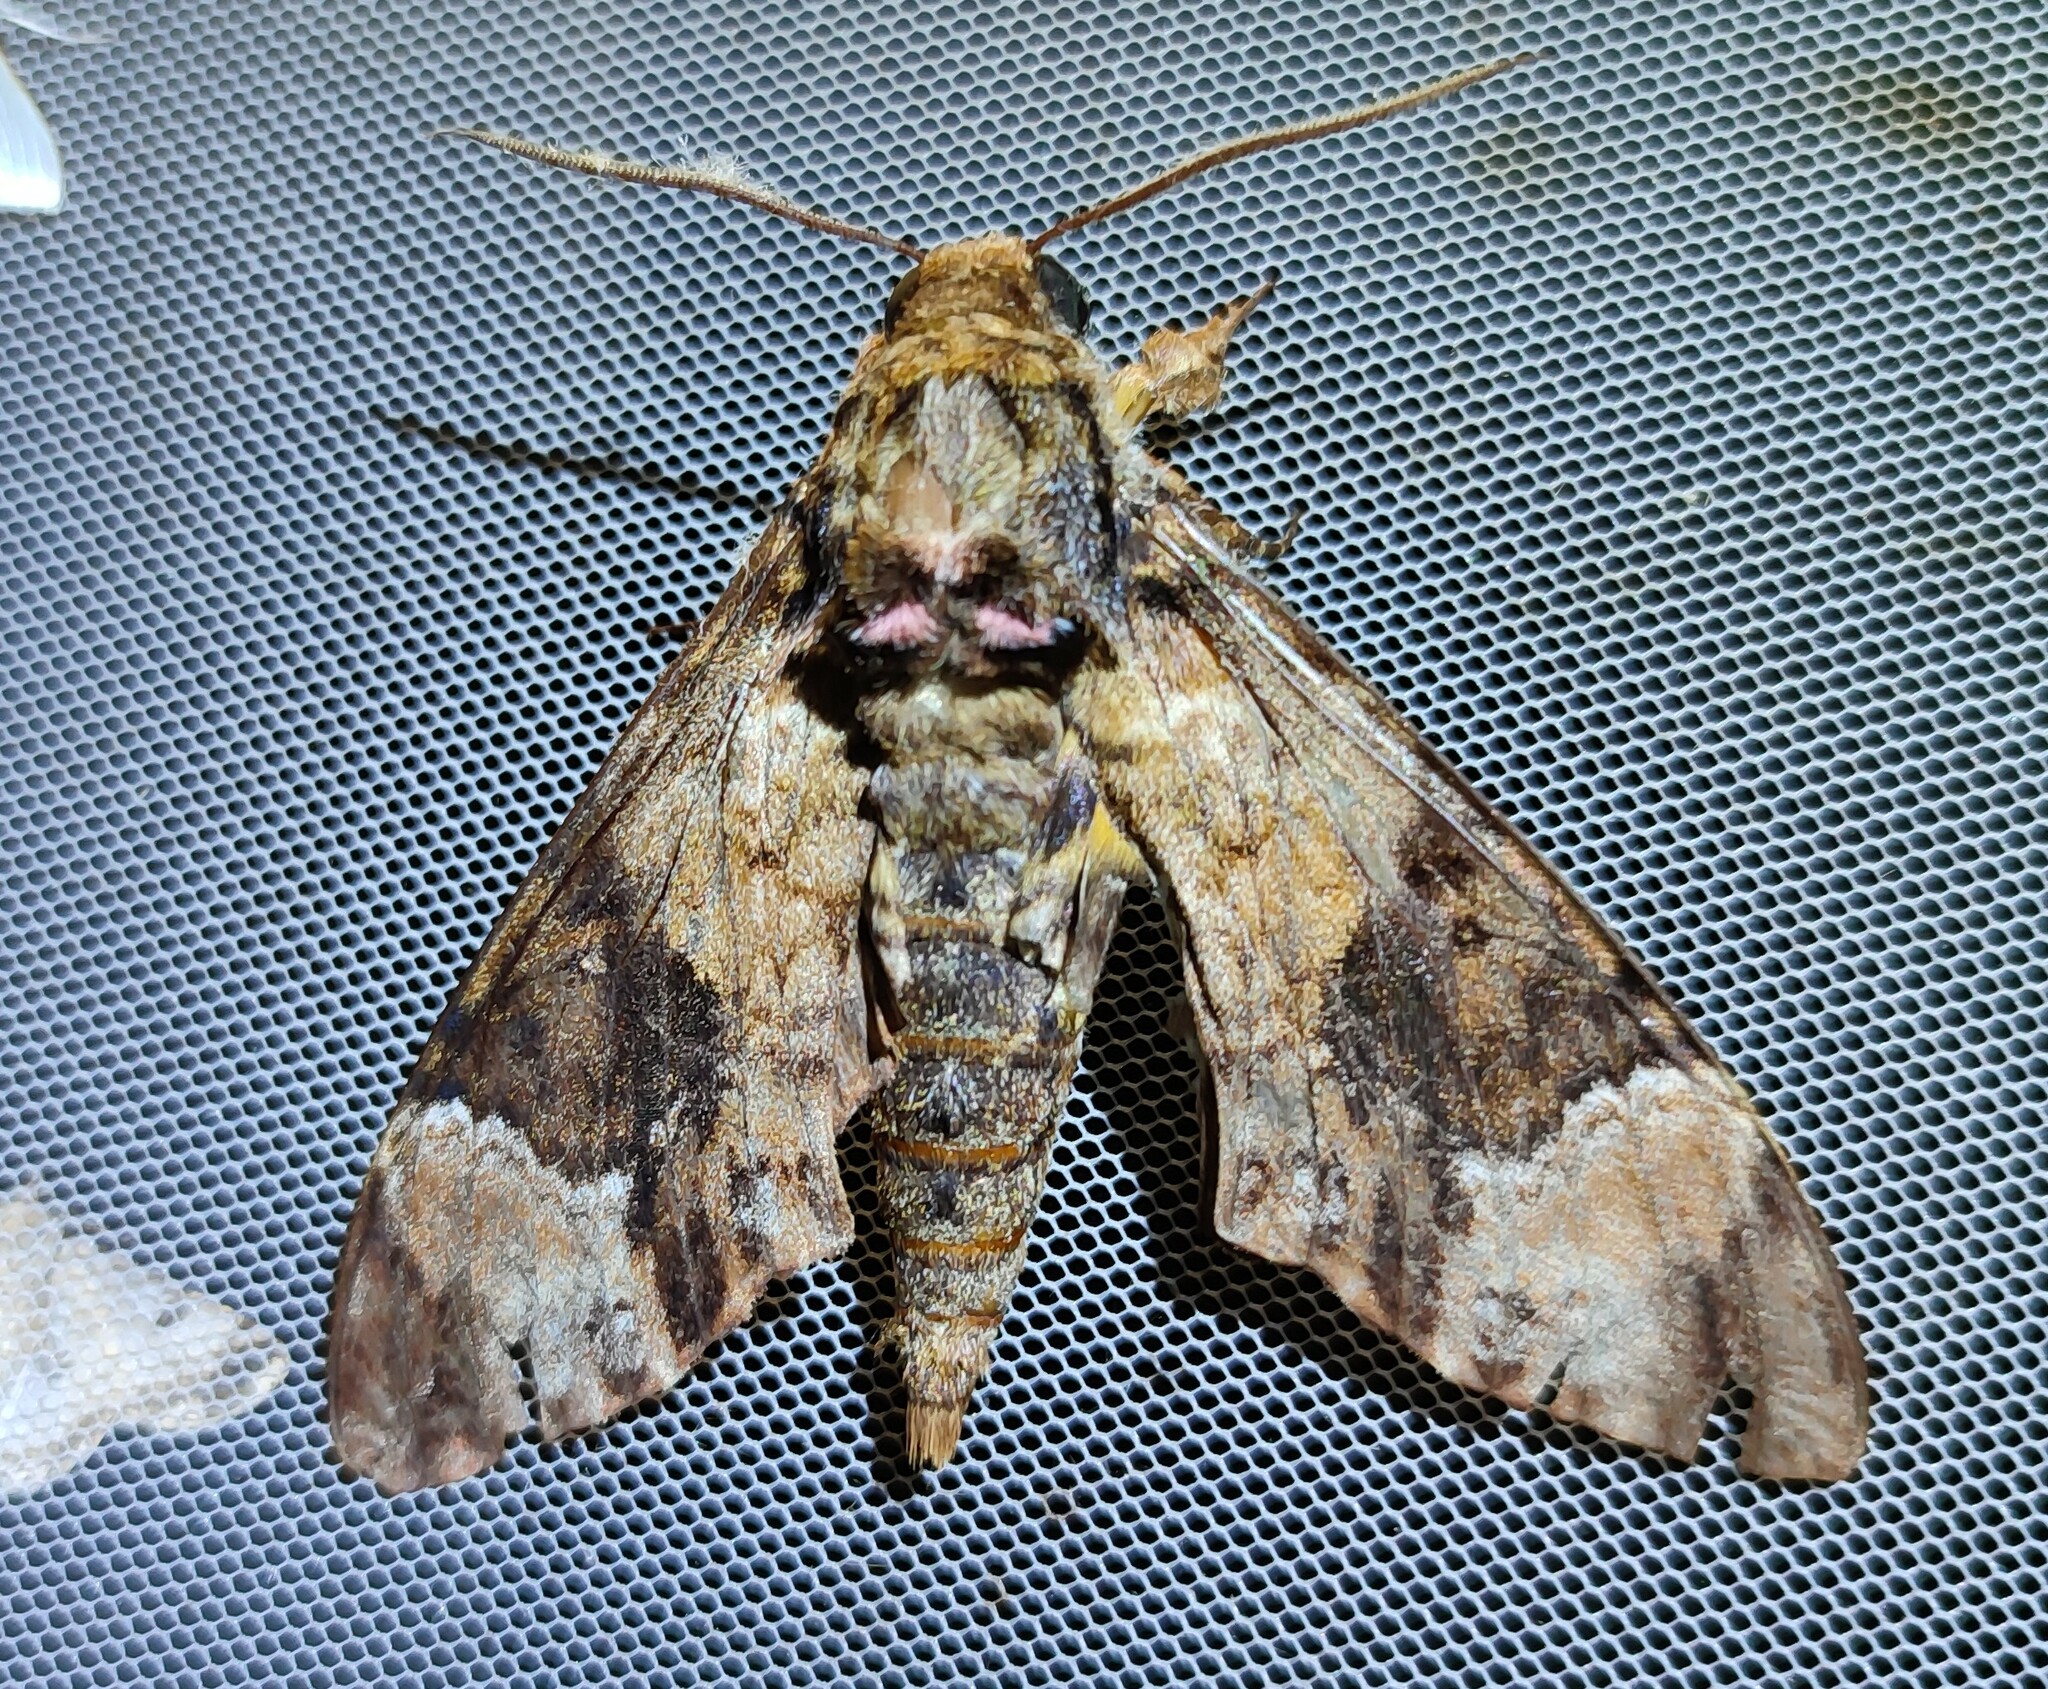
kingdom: Animalia
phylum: Arthropoda
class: Insecta
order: Lepidoptera
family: Sphingidae
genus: Coelonia
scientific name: Coelonia fulvinotata
